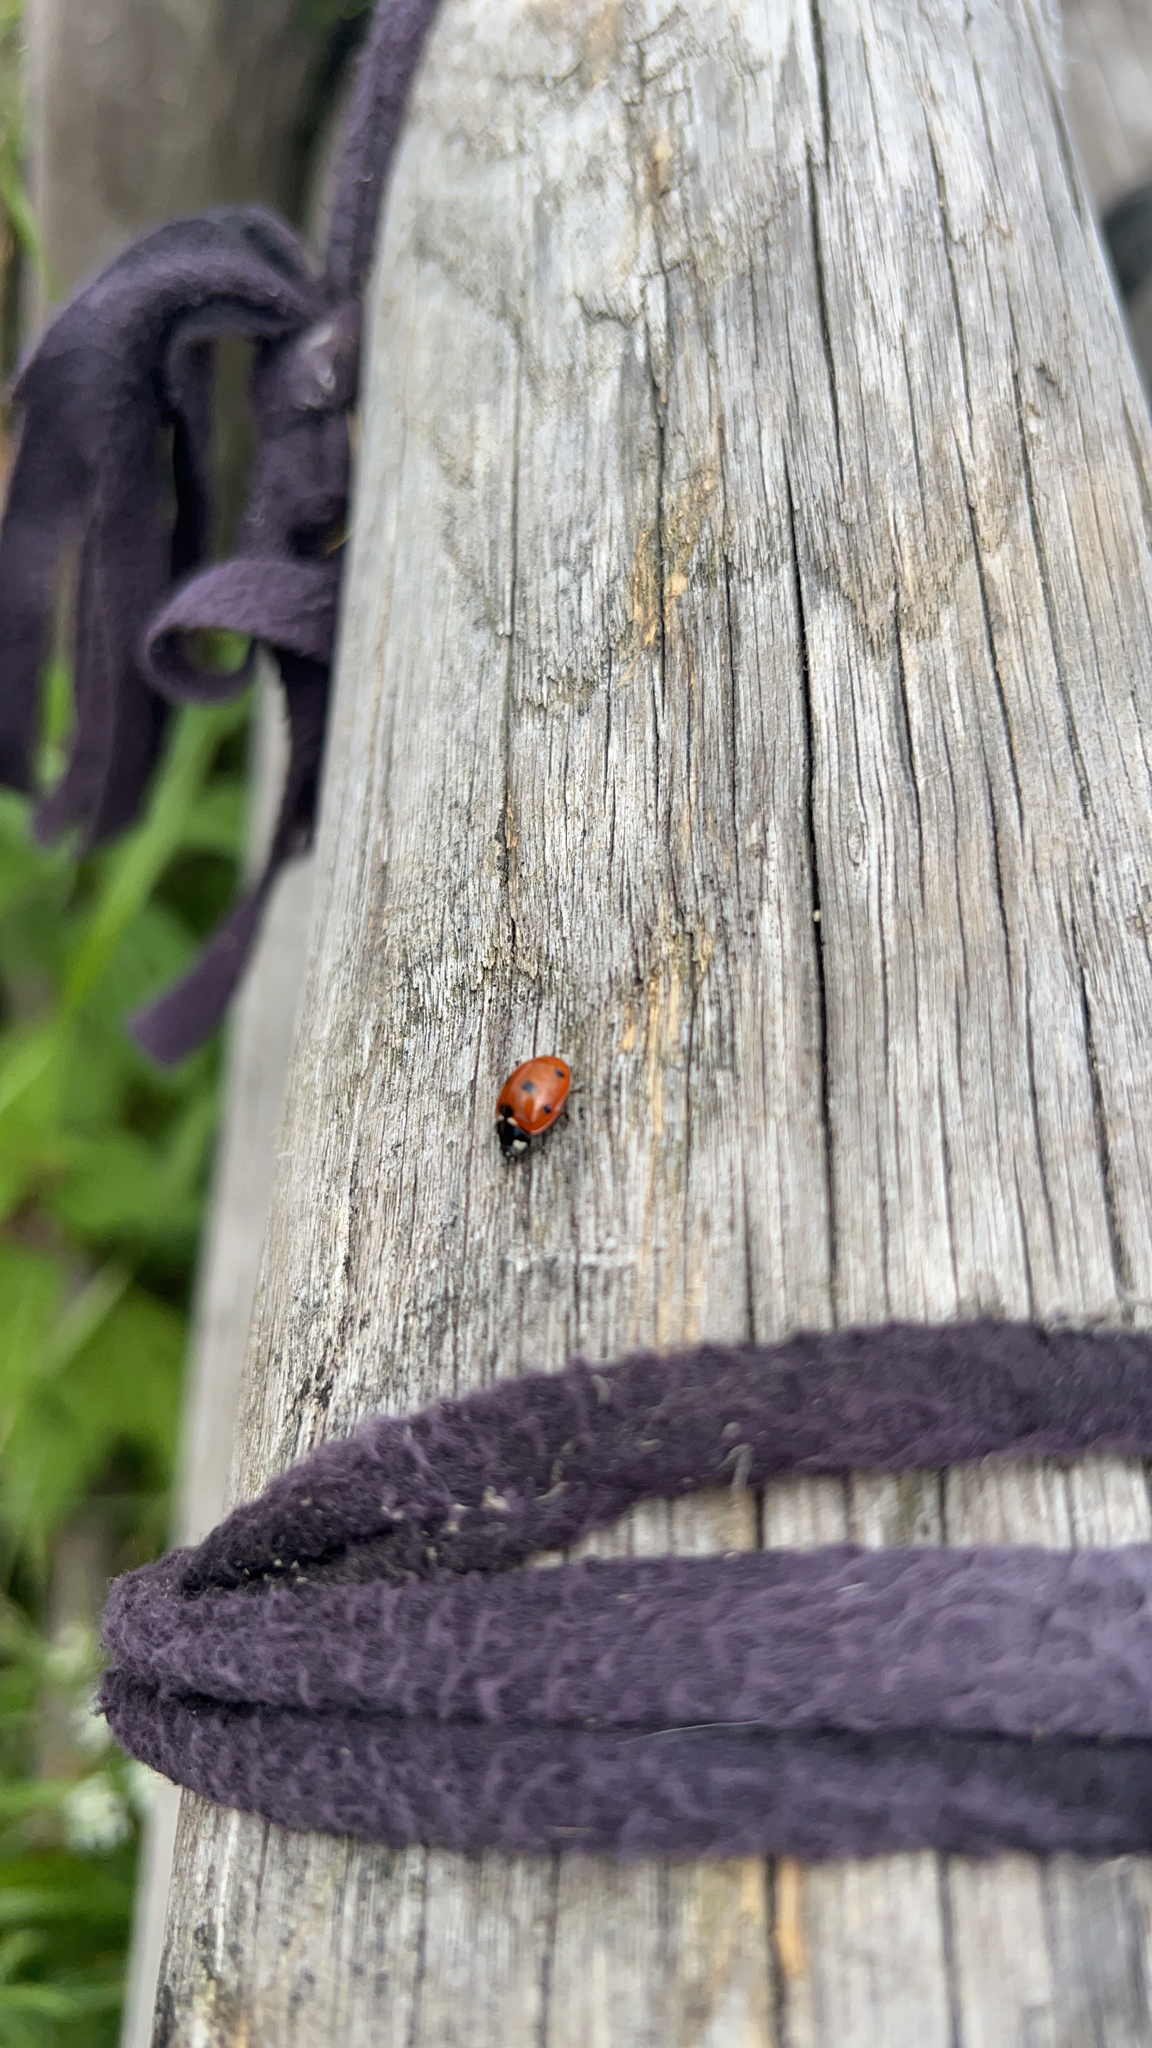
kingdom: Animalia
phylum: Arthropoda
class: Insecta
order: Coleoptera
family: Coccinellidae
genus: Coccinella
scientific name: Coccinella septempunctata
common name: Sevenspotted lady beetle
